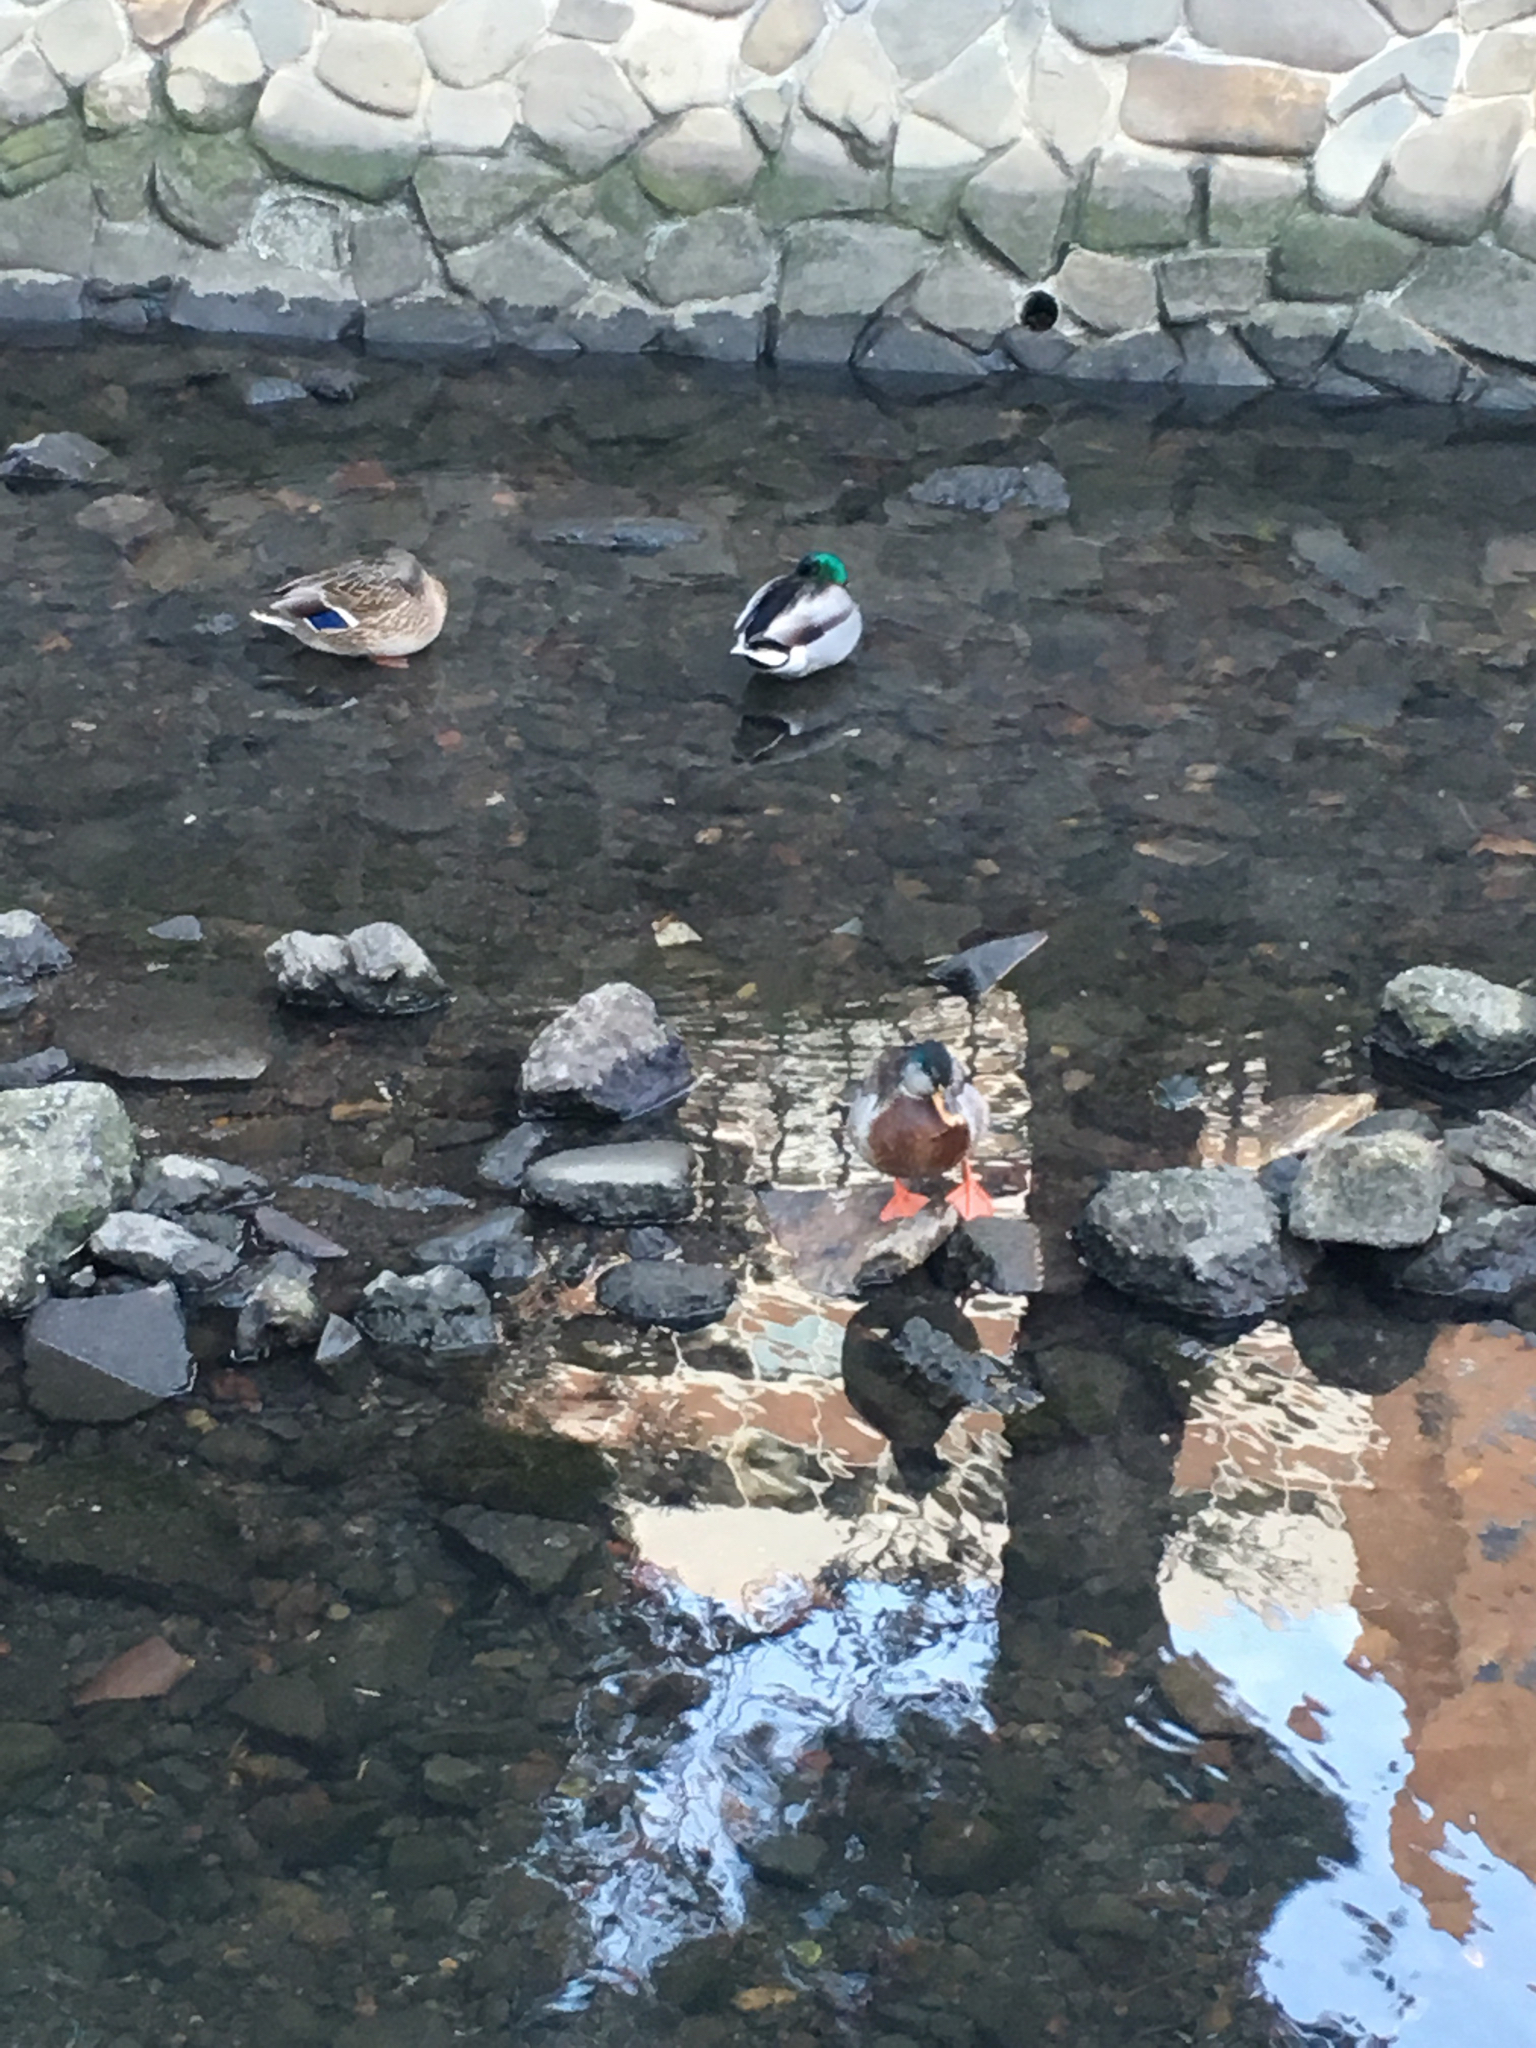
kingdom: Animalia
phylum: Chordata
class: Aves
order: Anseriformes
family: Anatidae
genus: Anas
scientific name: Anas platyrhynchos
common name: Mallard
